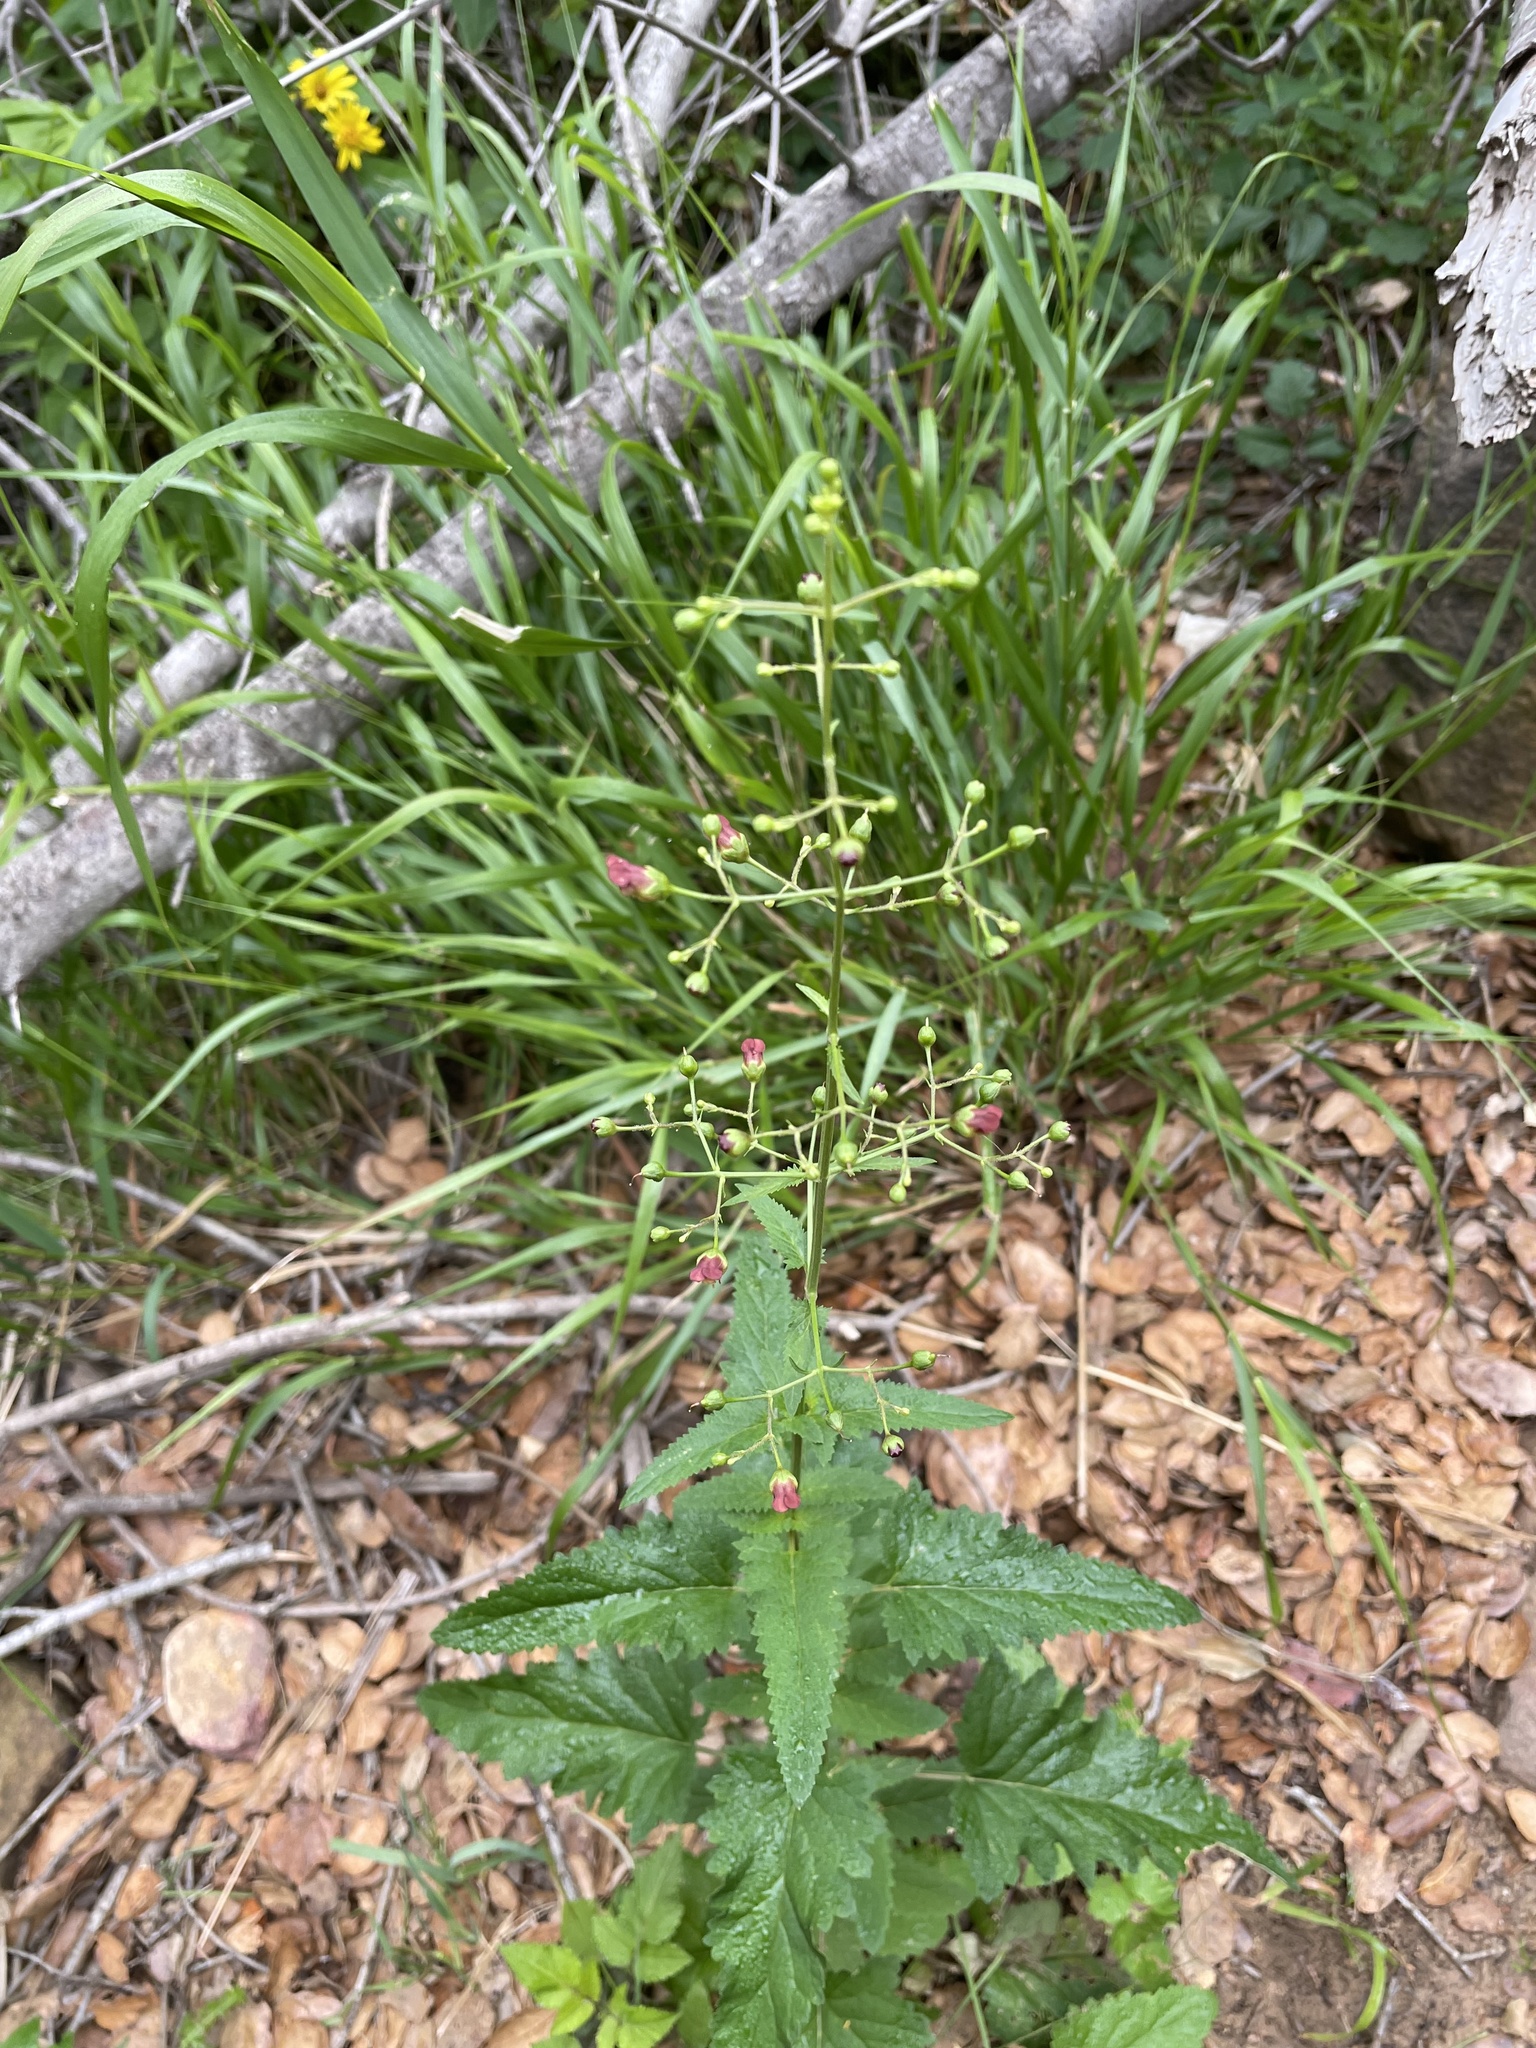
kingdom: Plantae
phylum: Tracheophyta
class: Magnoliopsida
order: Lamiales
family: Scrophulariaceae
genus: Scrophularia
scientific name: Scrophularia californica
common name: California figwort
